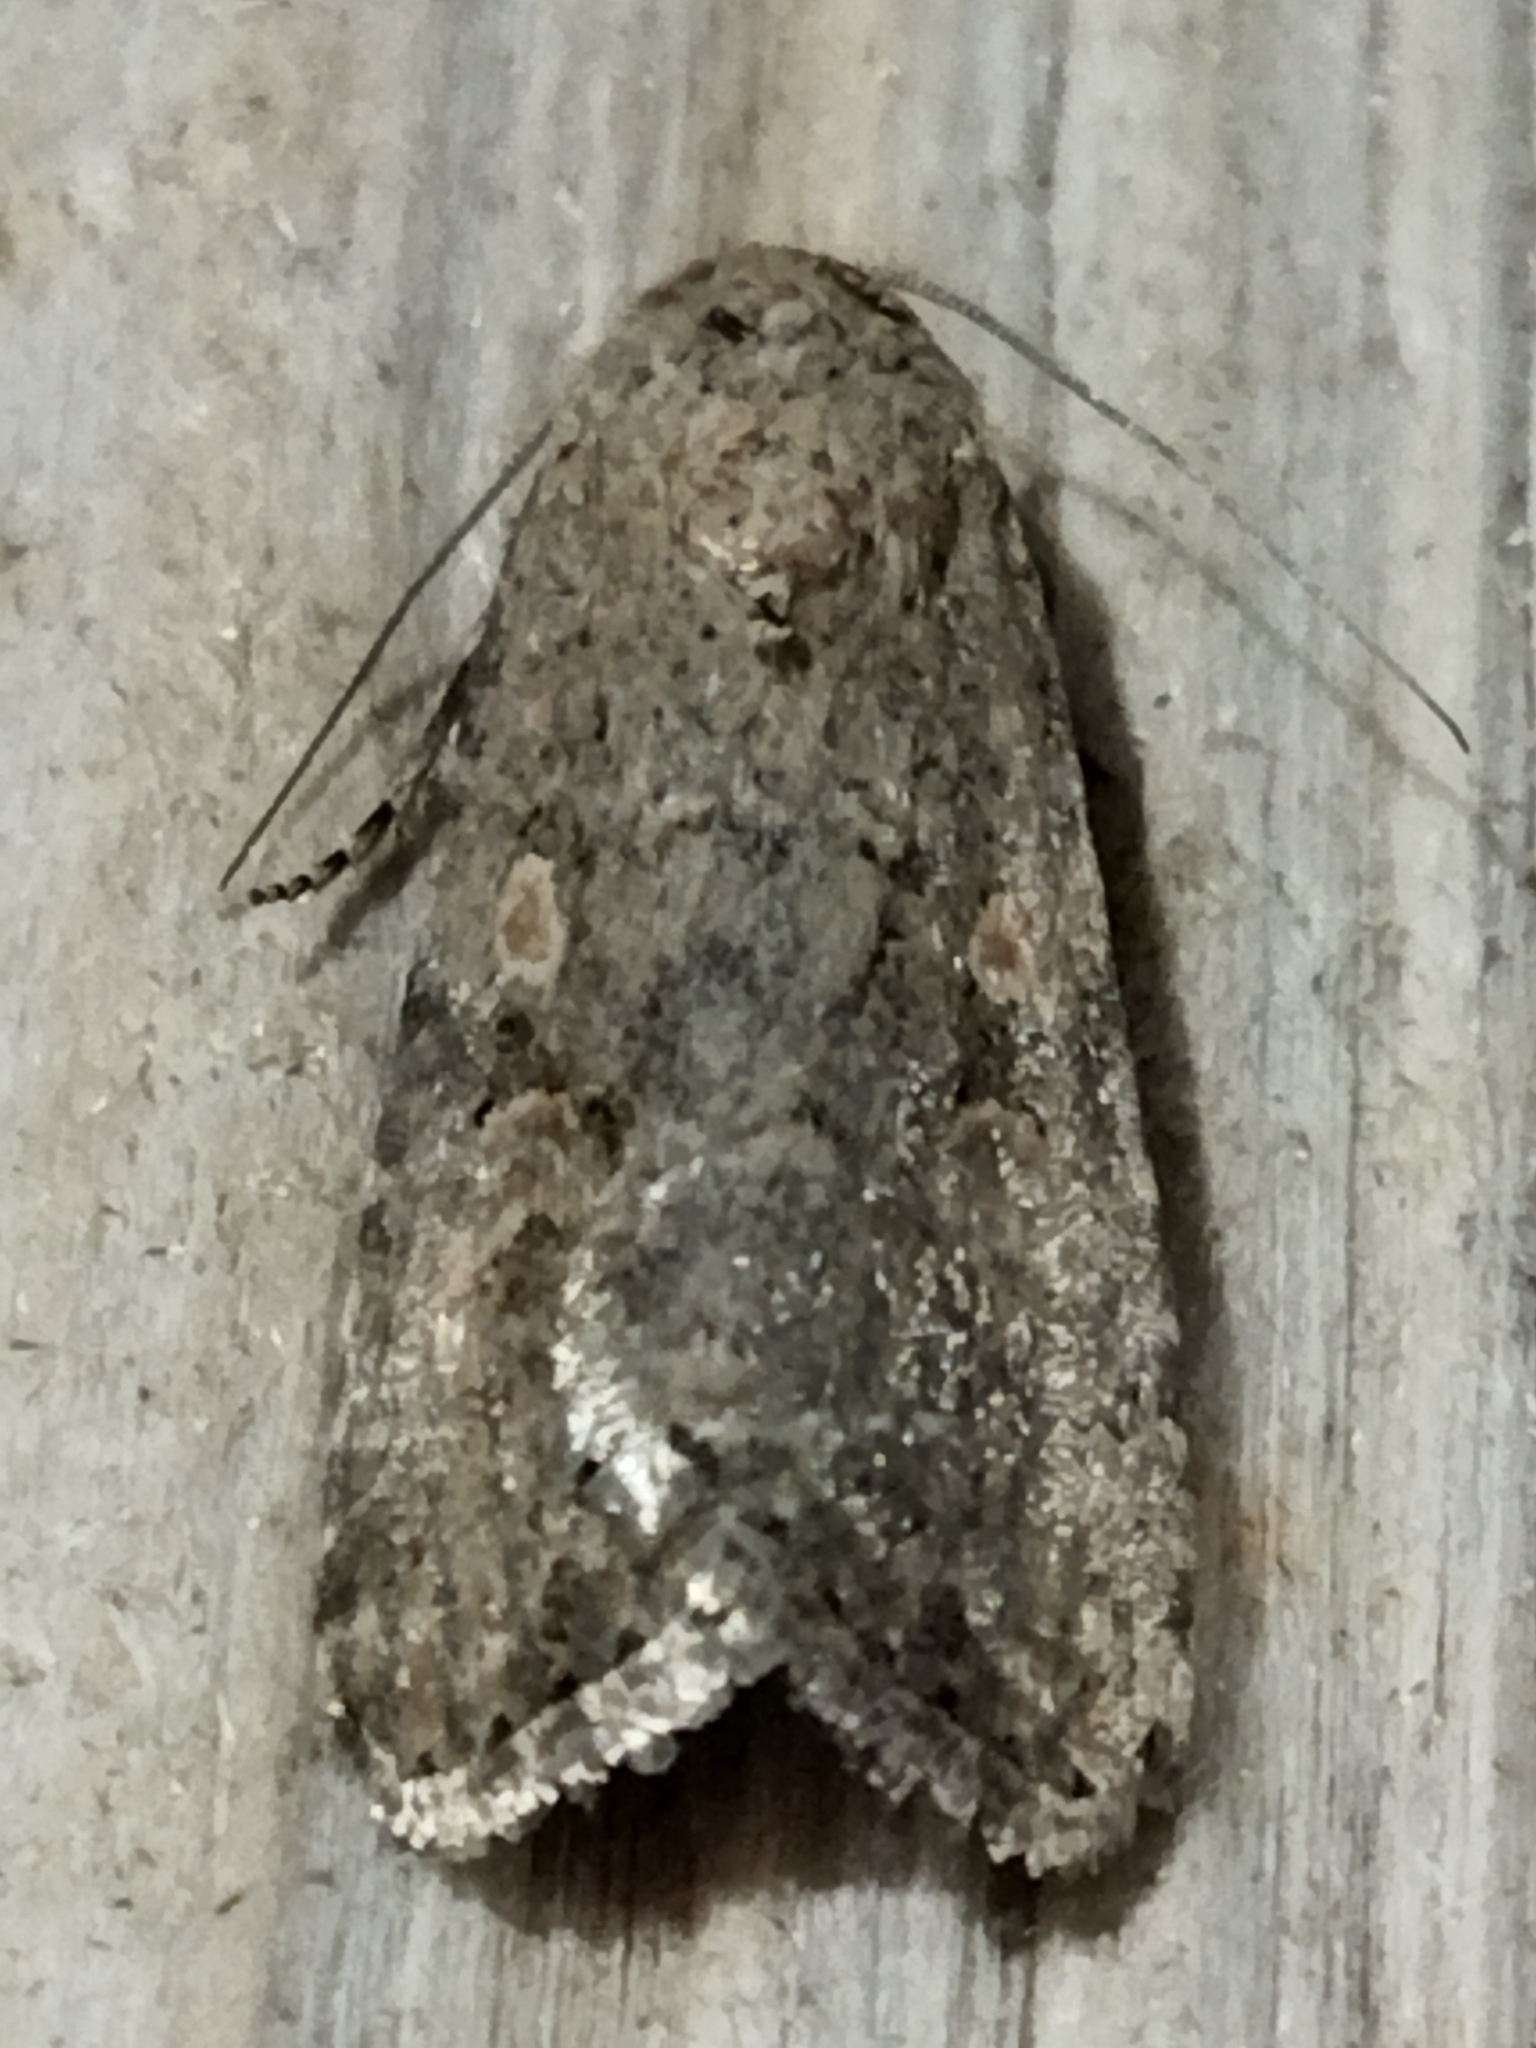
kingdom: Animalia
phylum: Arthropoda
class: Insecta
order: Lepidoptera
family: Noctuidae
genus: Spodoptera
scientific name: Spodoptera exigua
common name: Beet armyworm
